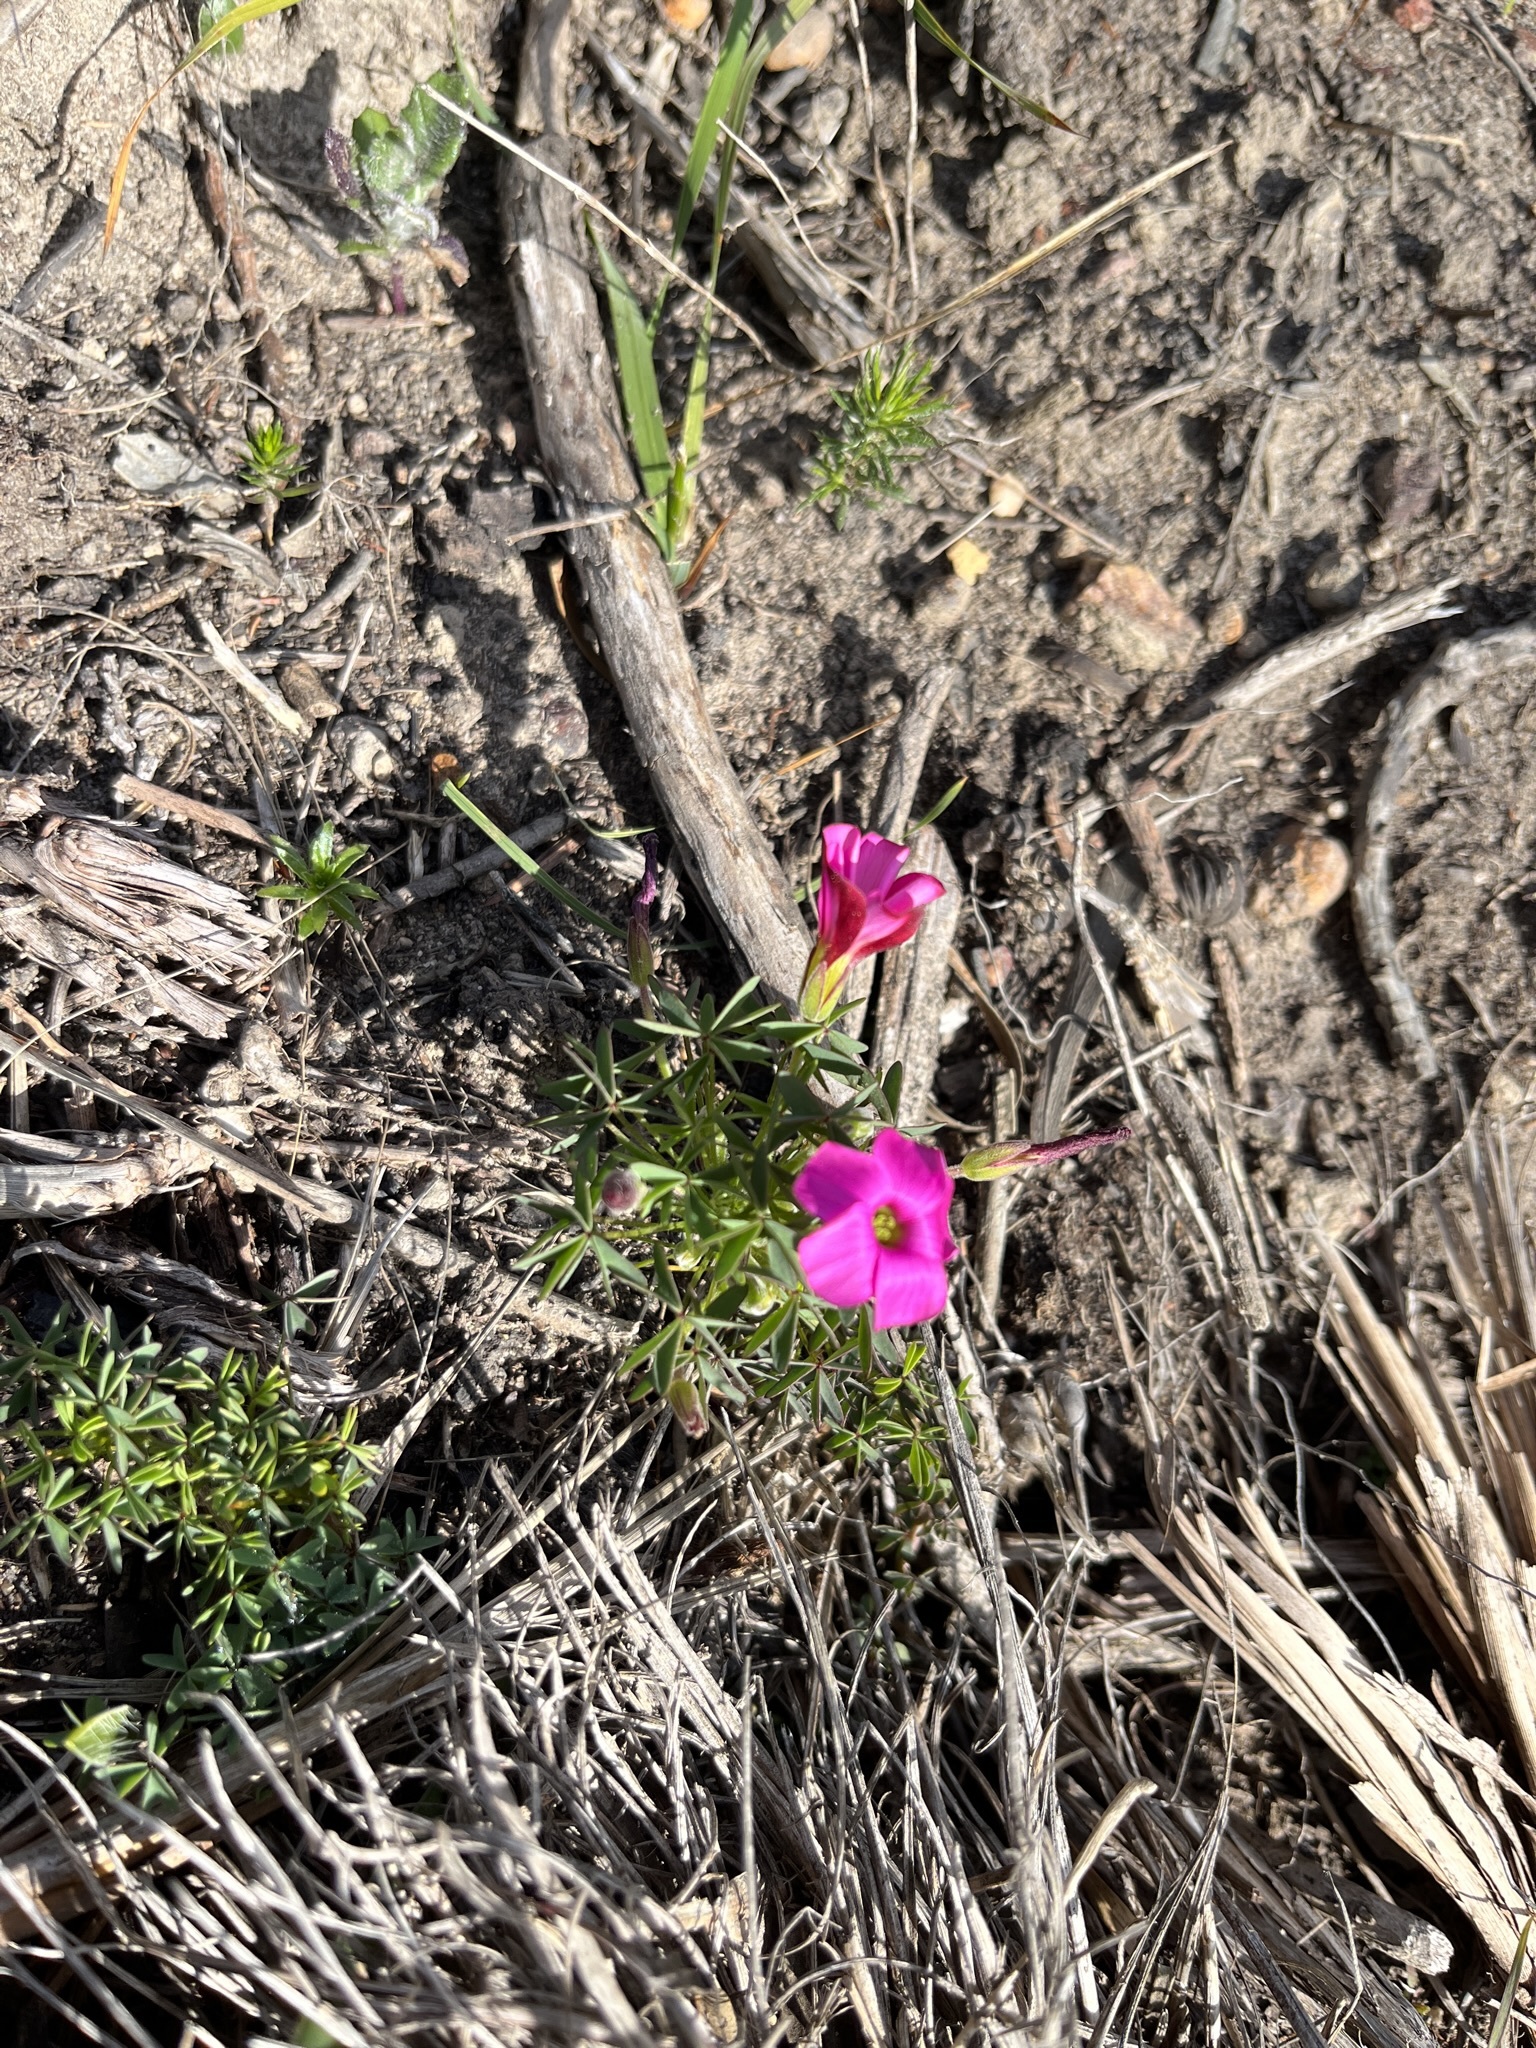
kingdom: Plantae
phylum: Tracheophyta
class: Magnoliopsida
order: Oxalidales
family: Oxalidaceae
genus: Oxalis
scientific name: Oxalis heterophylla
